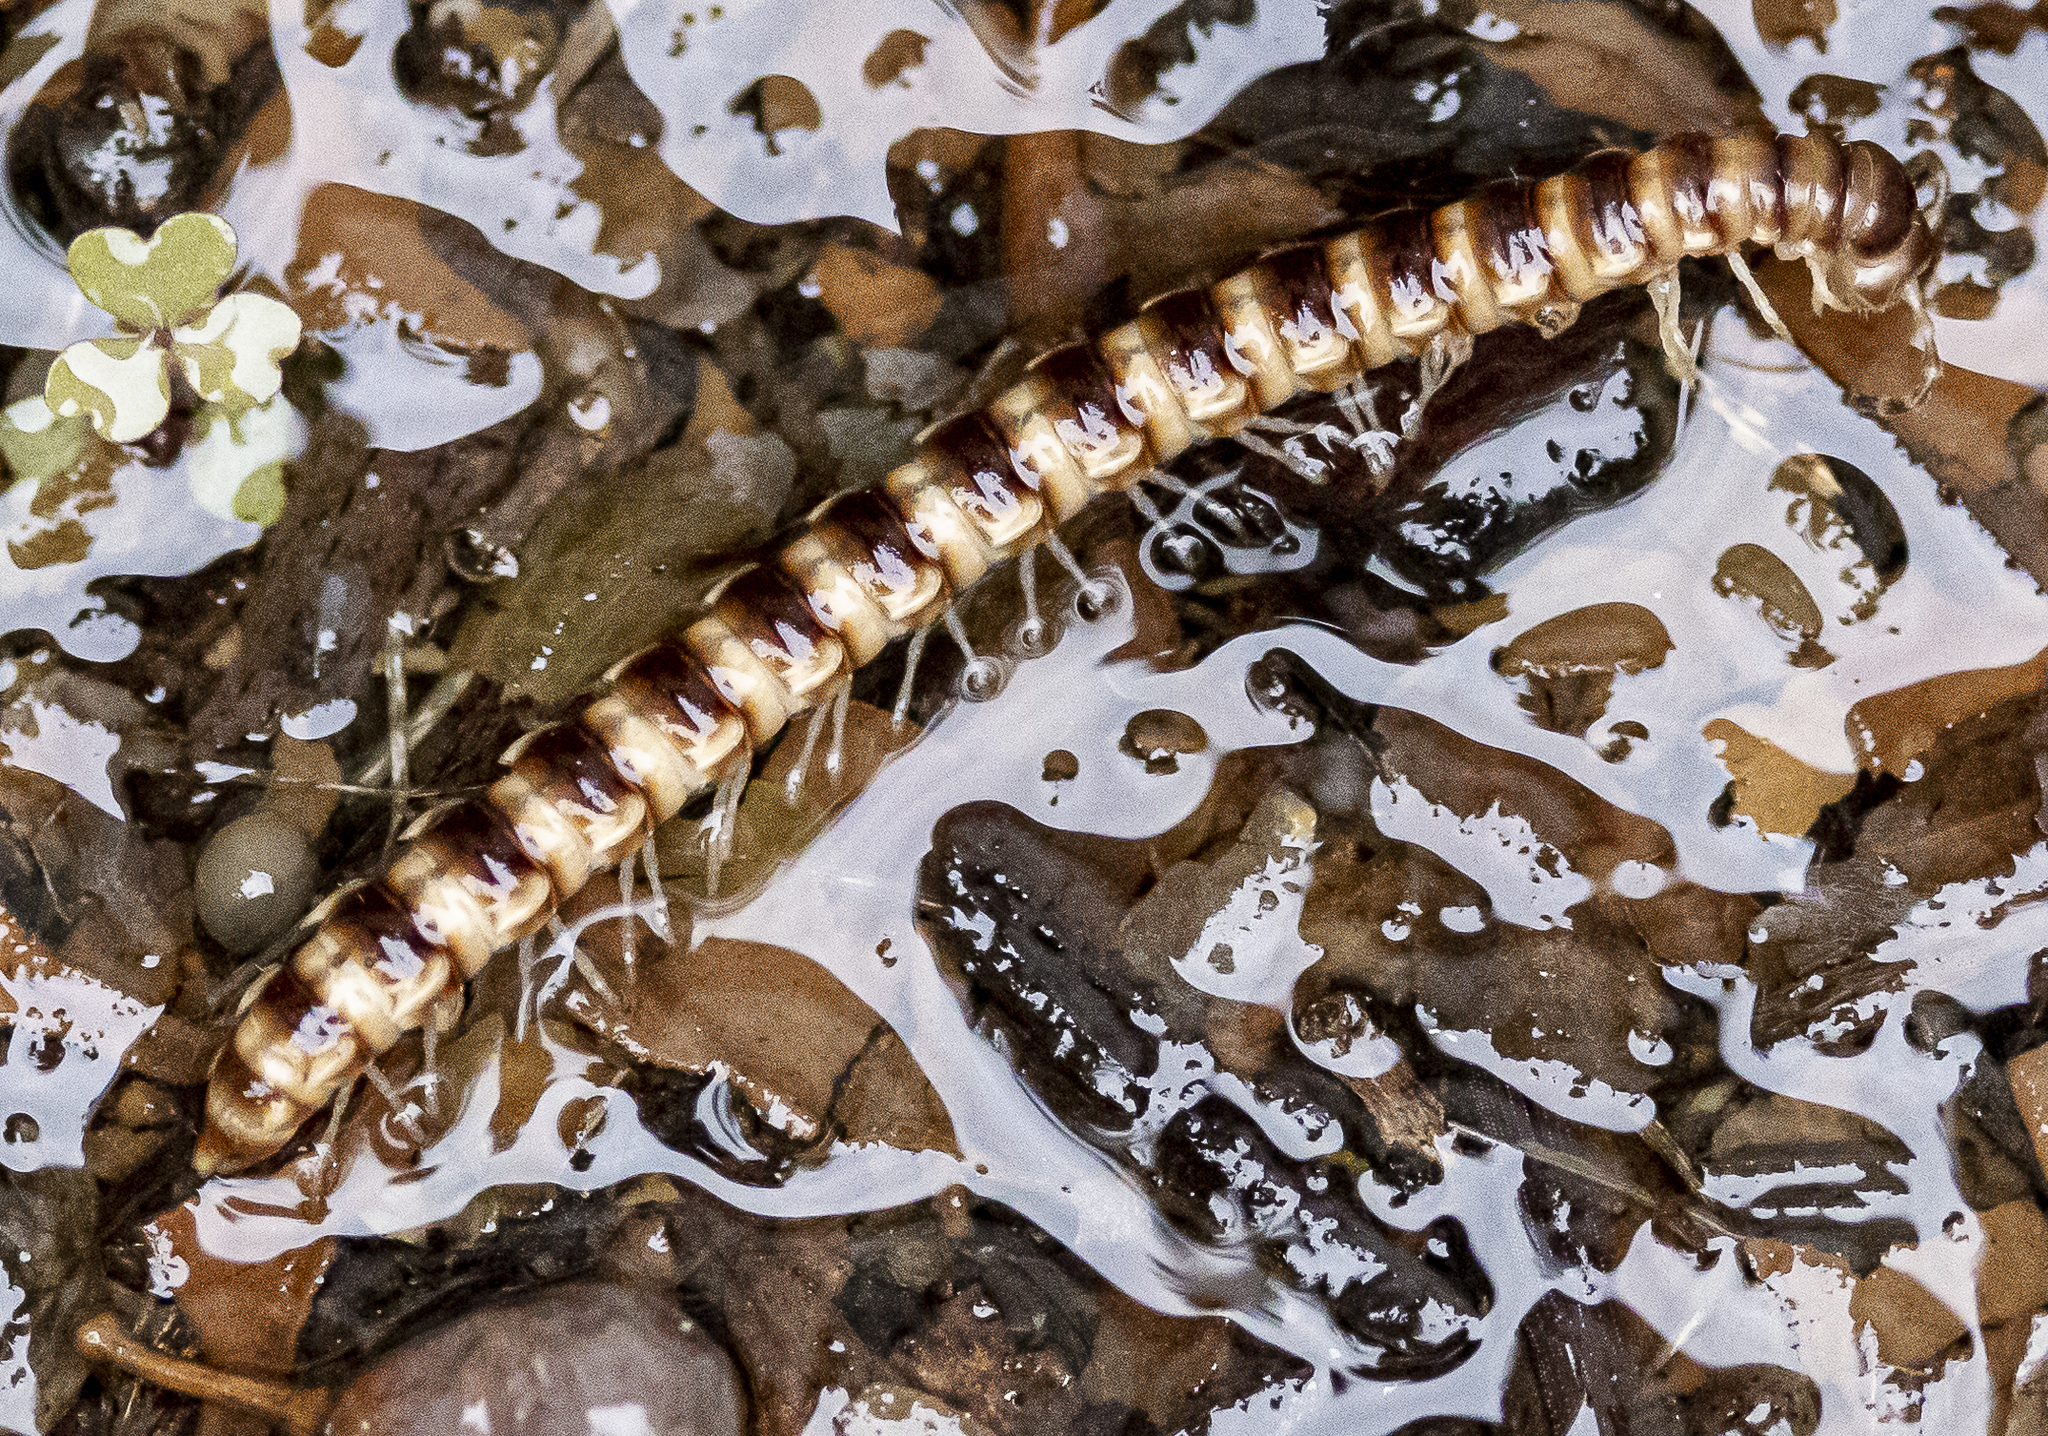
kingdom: Animalia
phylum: Arthropoda
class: Diplopoda
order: Polydesmida
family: Paradoxosomatidae
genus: Oxidus
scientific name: Oxidus gracilis
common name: Greenhouse millipede
